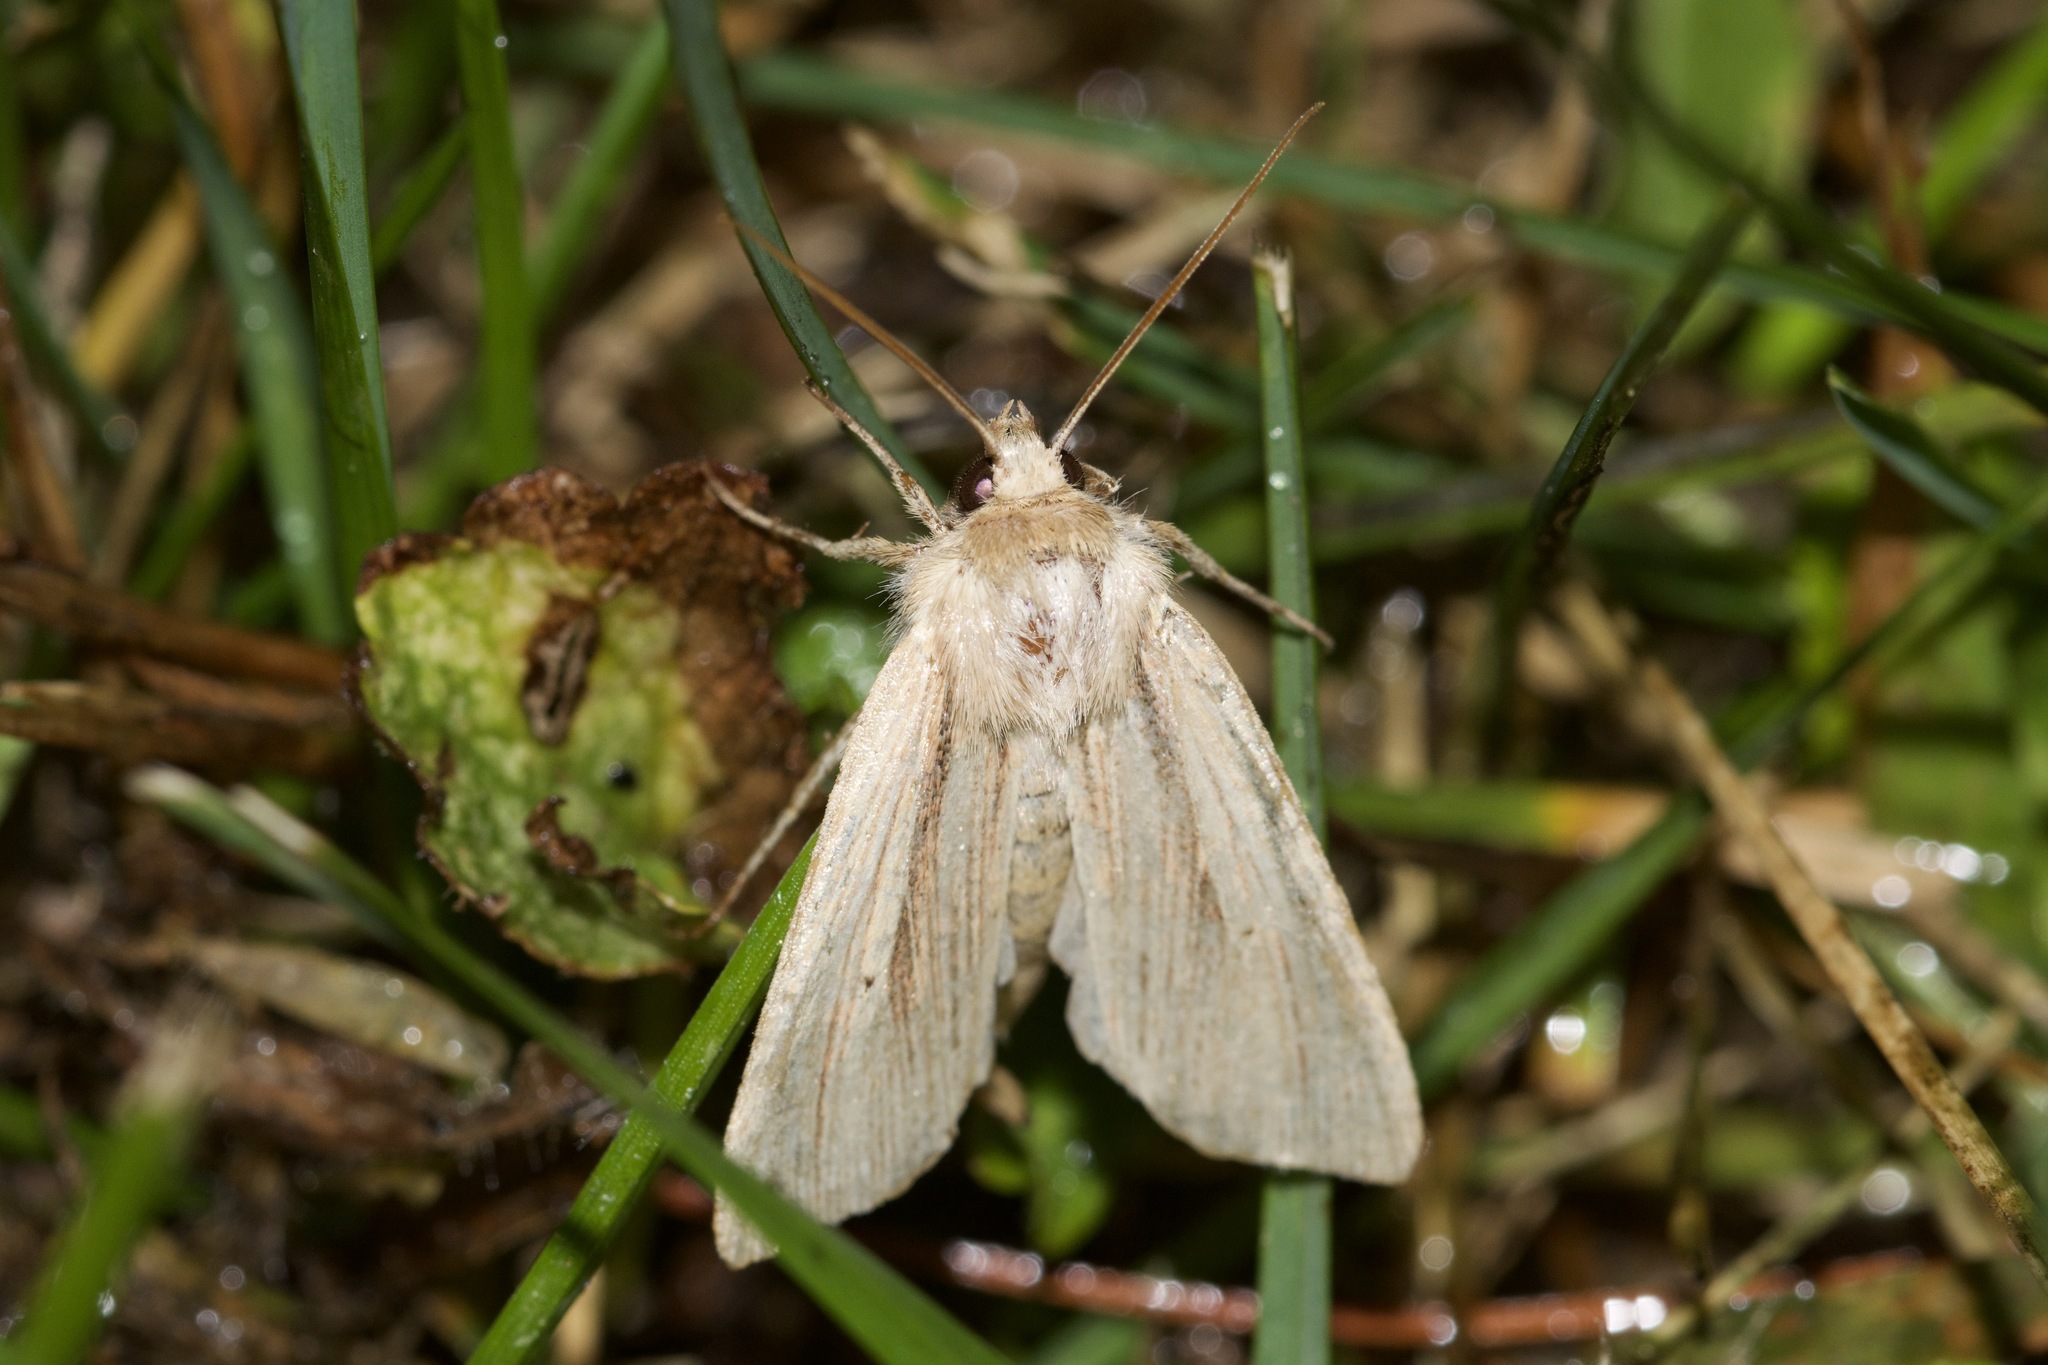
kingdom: Animalia
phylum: Arthropoda
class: Insecta
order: Lepidoptera
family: Noctuidae
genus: Mythimna
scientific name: Mythimna oxygala
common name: Lesser wainscot
